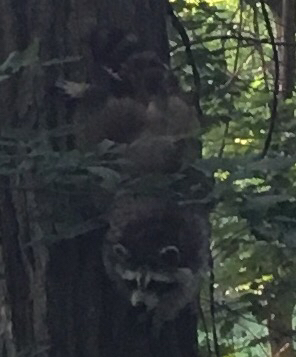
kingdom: Animalia
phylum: Chordata
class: Mammalia
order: Carnivora
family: Procyonidae
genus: Procyon
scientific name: Procyon lotor
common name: Raccoon
